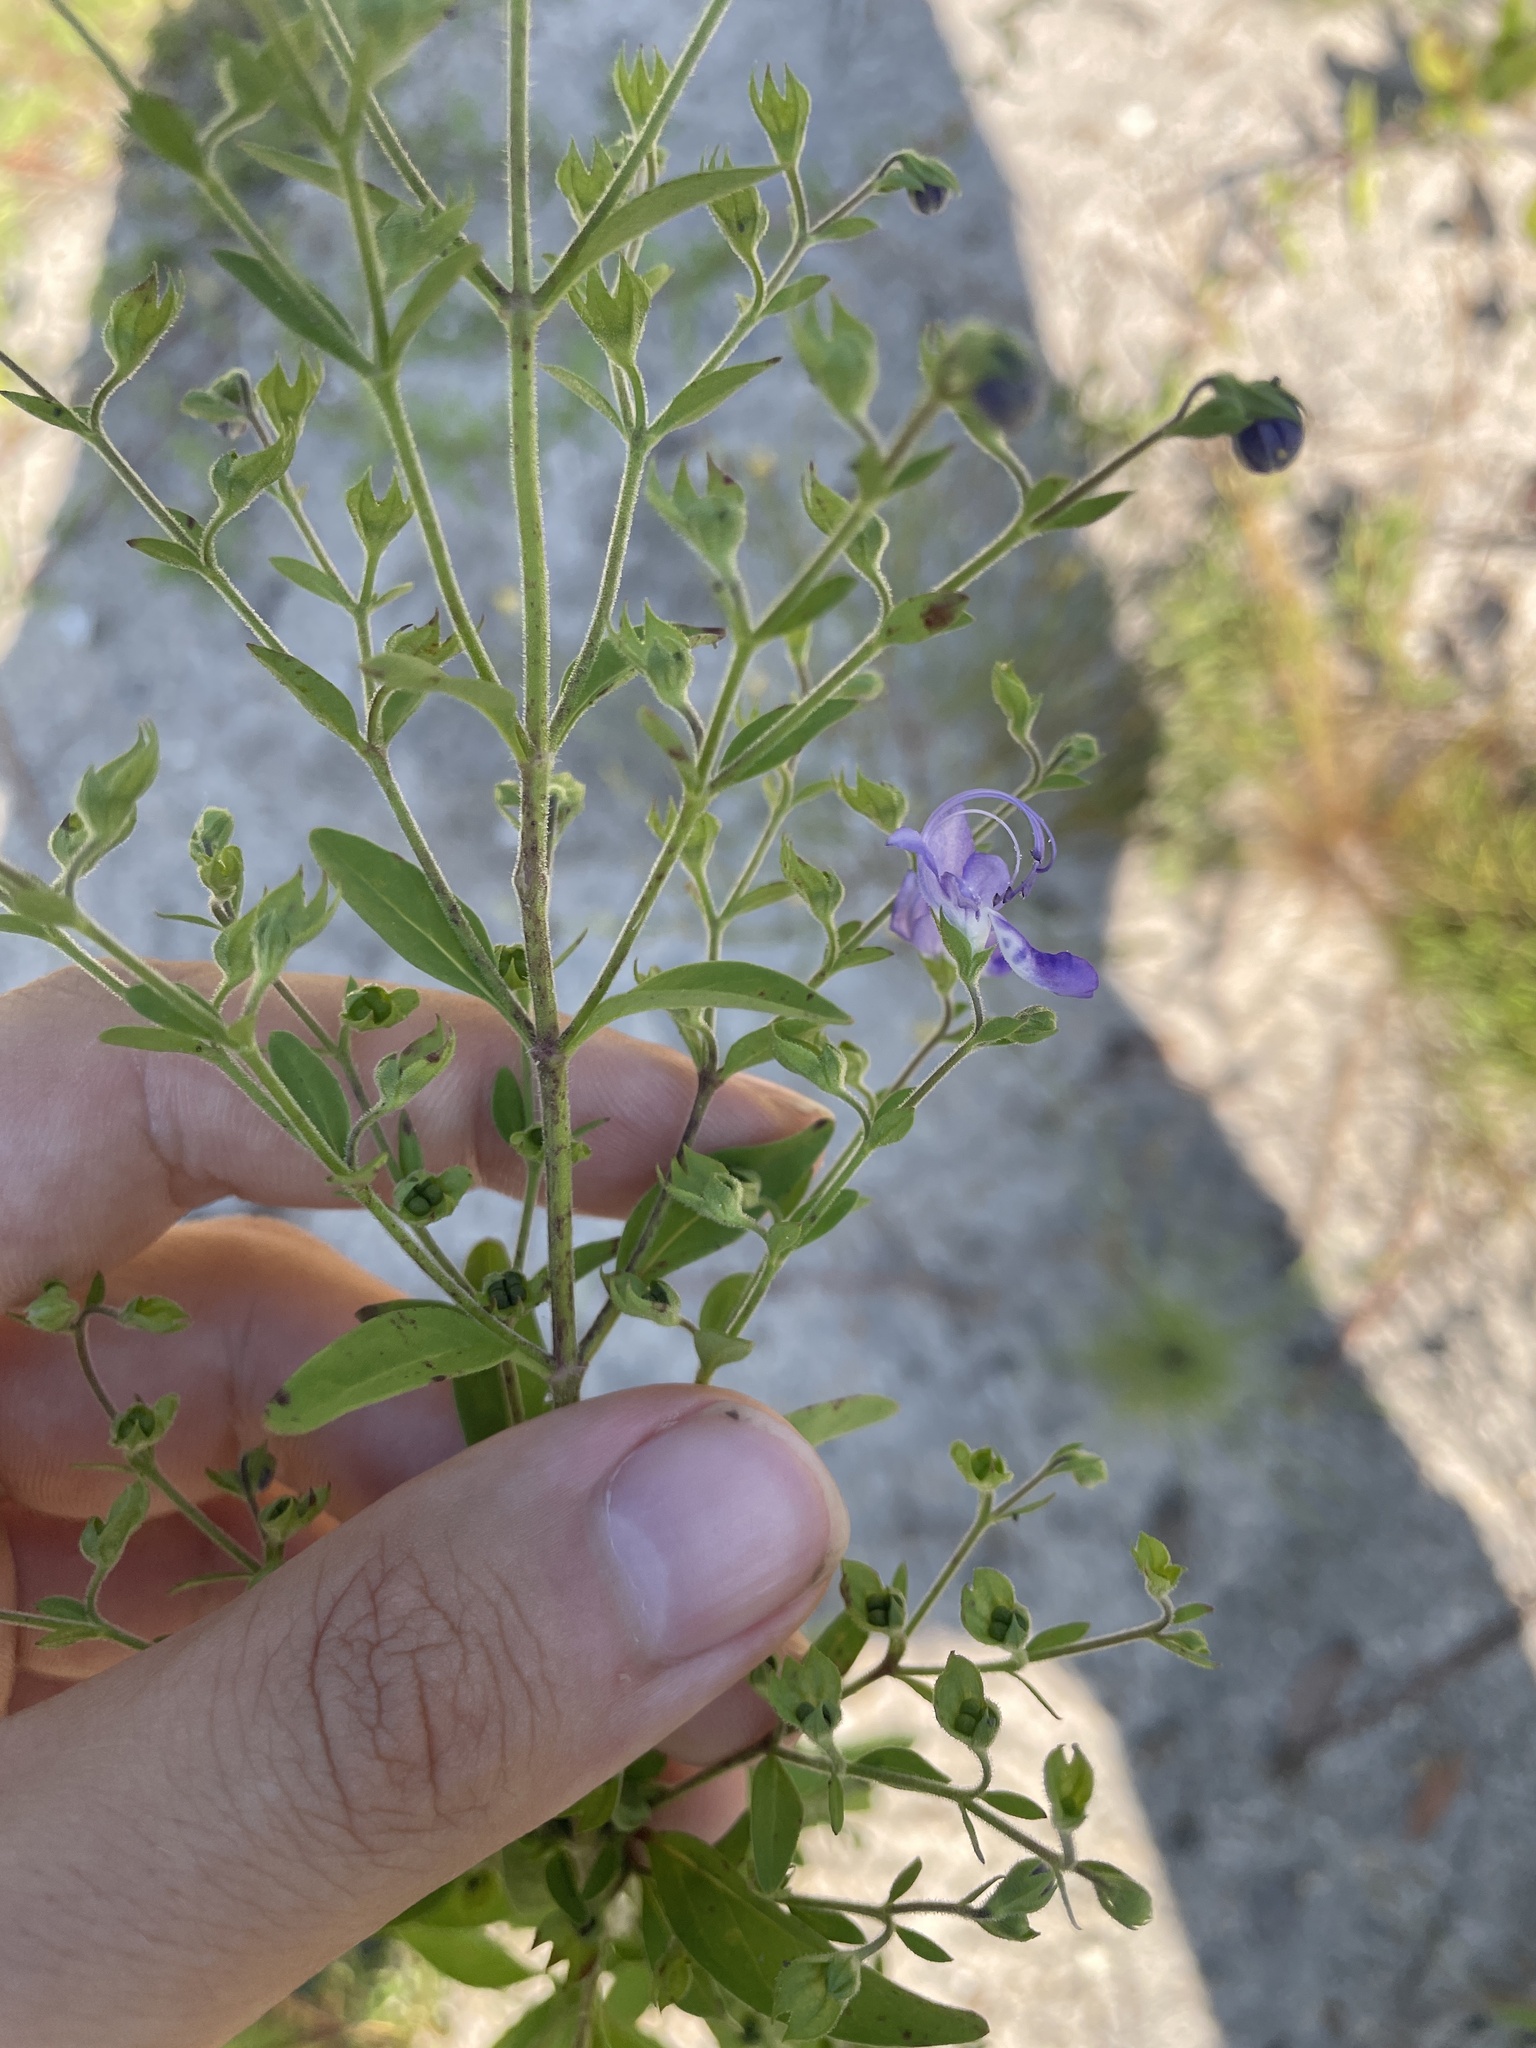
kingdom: Plantae
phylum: Tracheophyta
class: Magnoliopsida
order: Lamiales
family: Lamiaceae
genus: Trichostema
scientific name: Trichostema dichotomum
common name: Bastard pennyroyal
